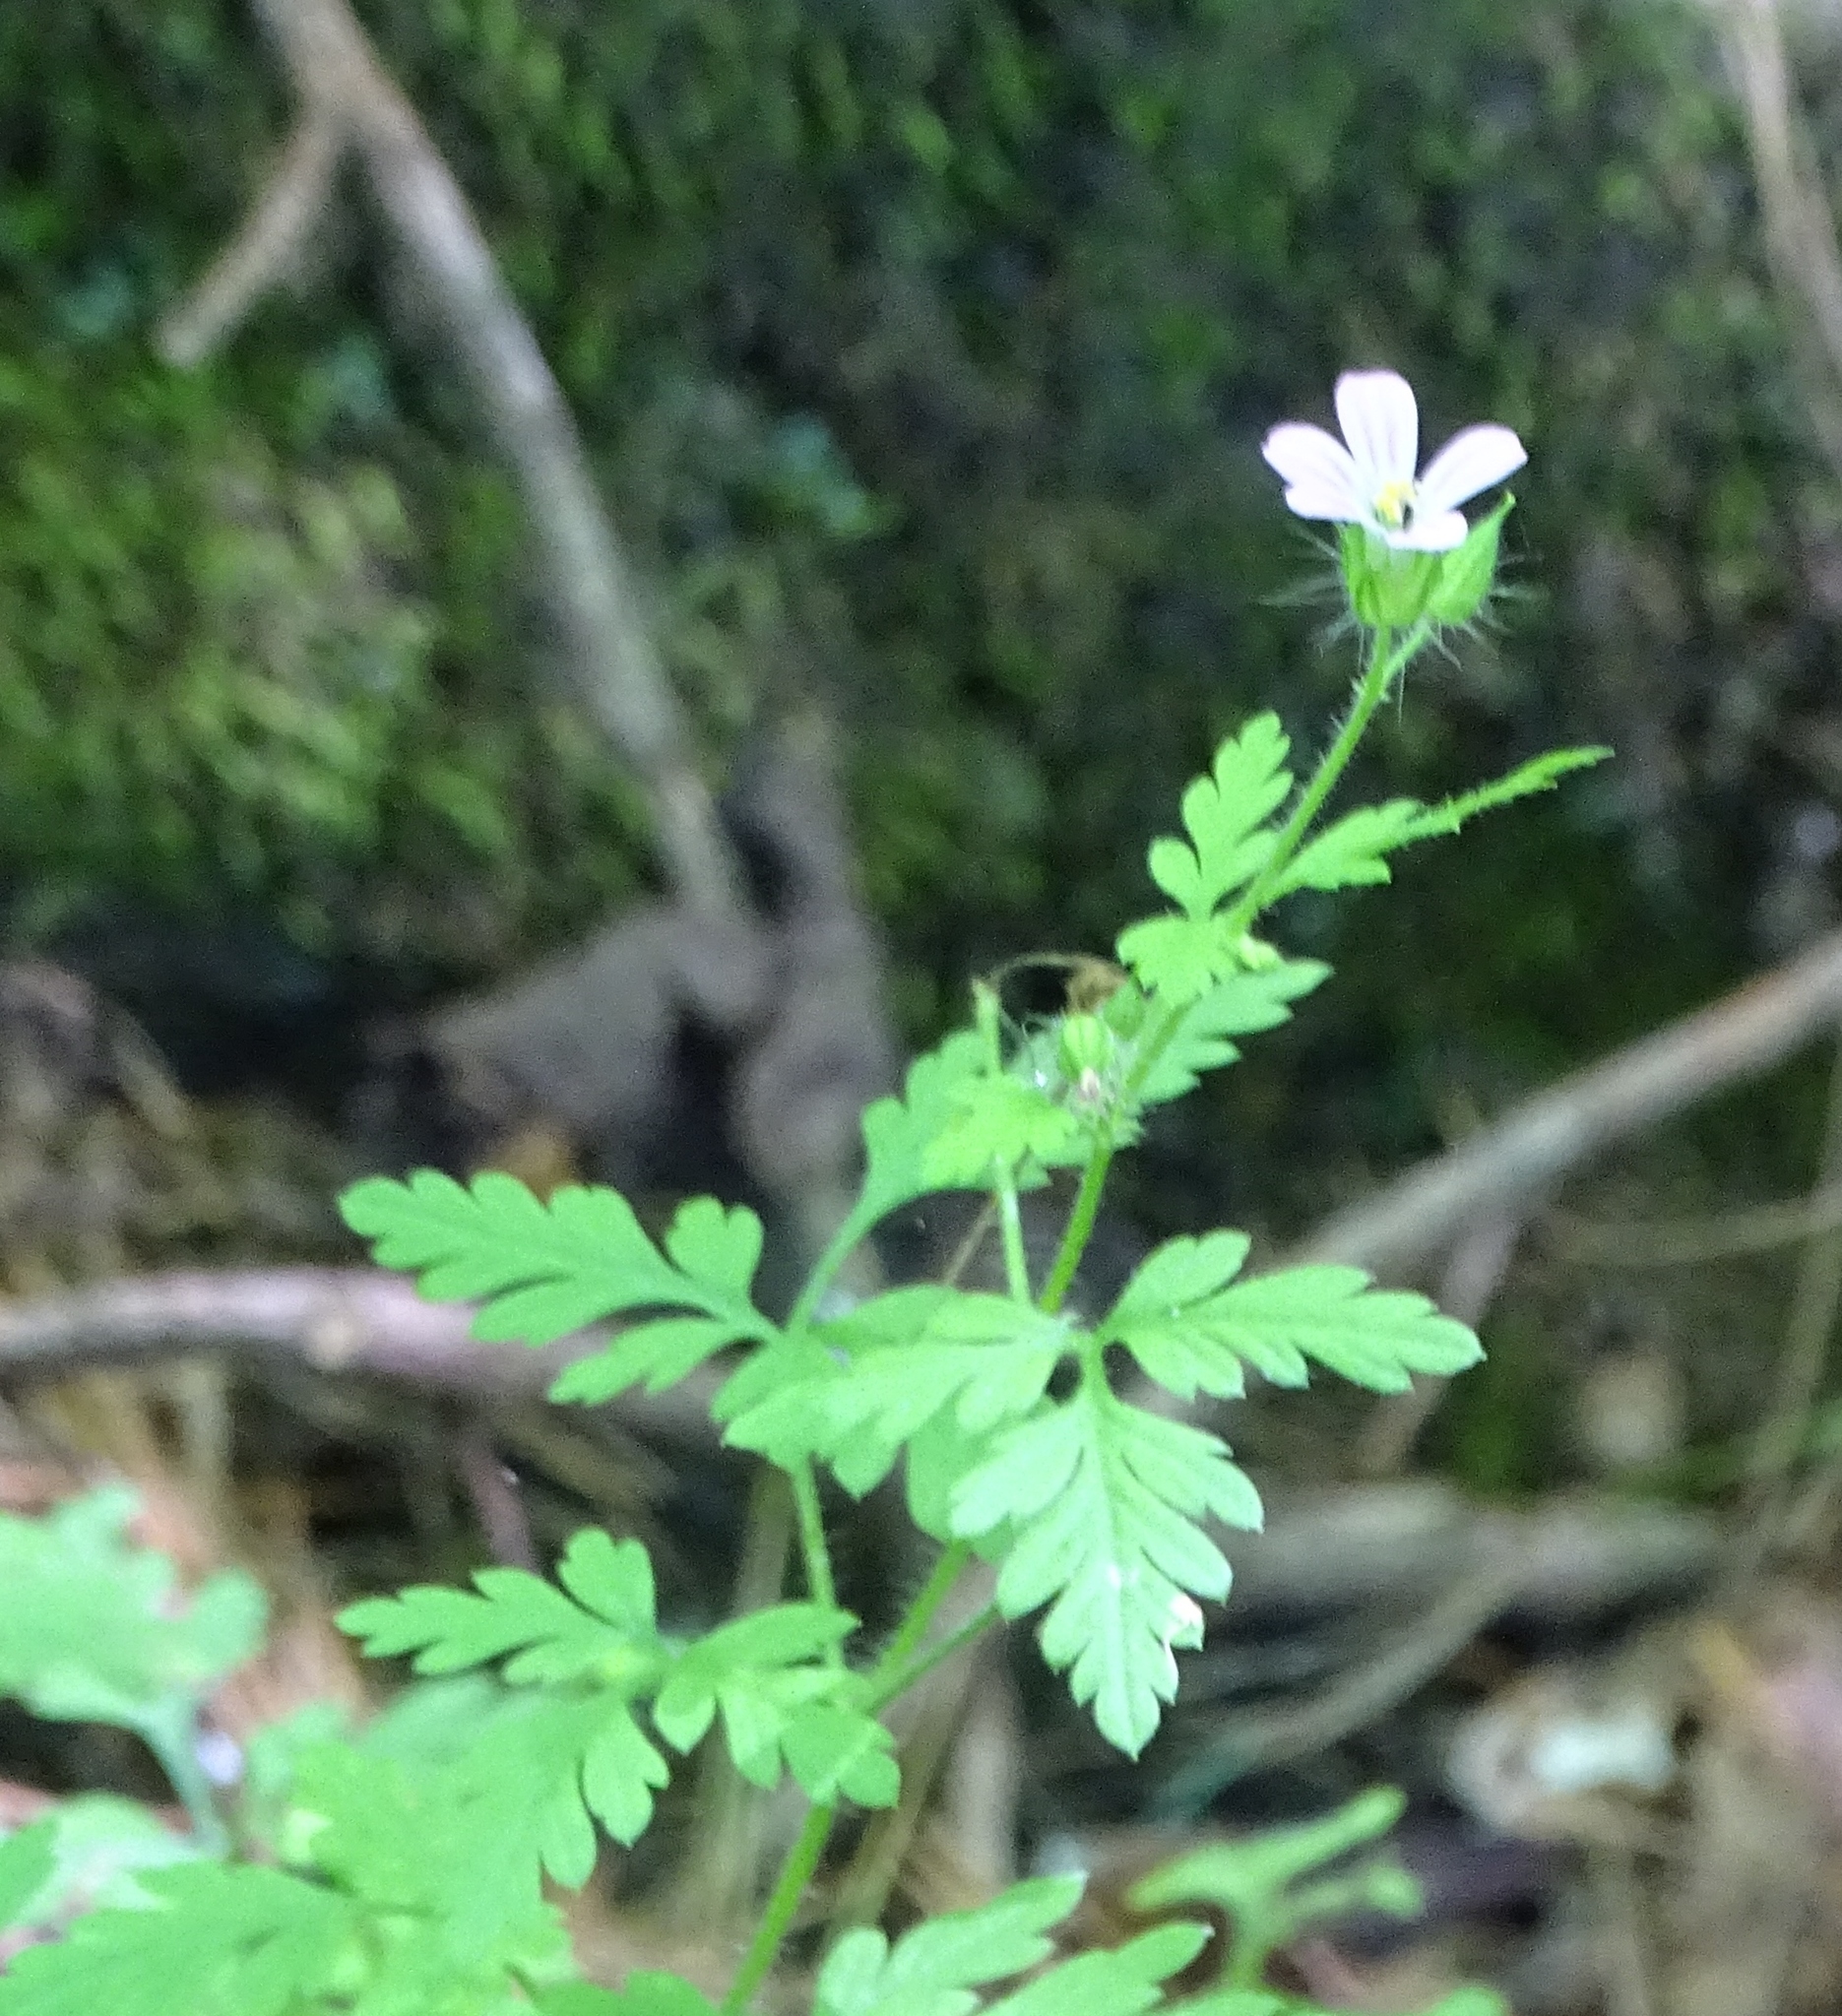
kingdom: Plantae
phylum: Tracheophyta
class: Magnoliopsida
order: Geraniales
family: Geraniaceae
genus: Geranium
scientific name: Geranium robertianum
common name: Herb-robert
